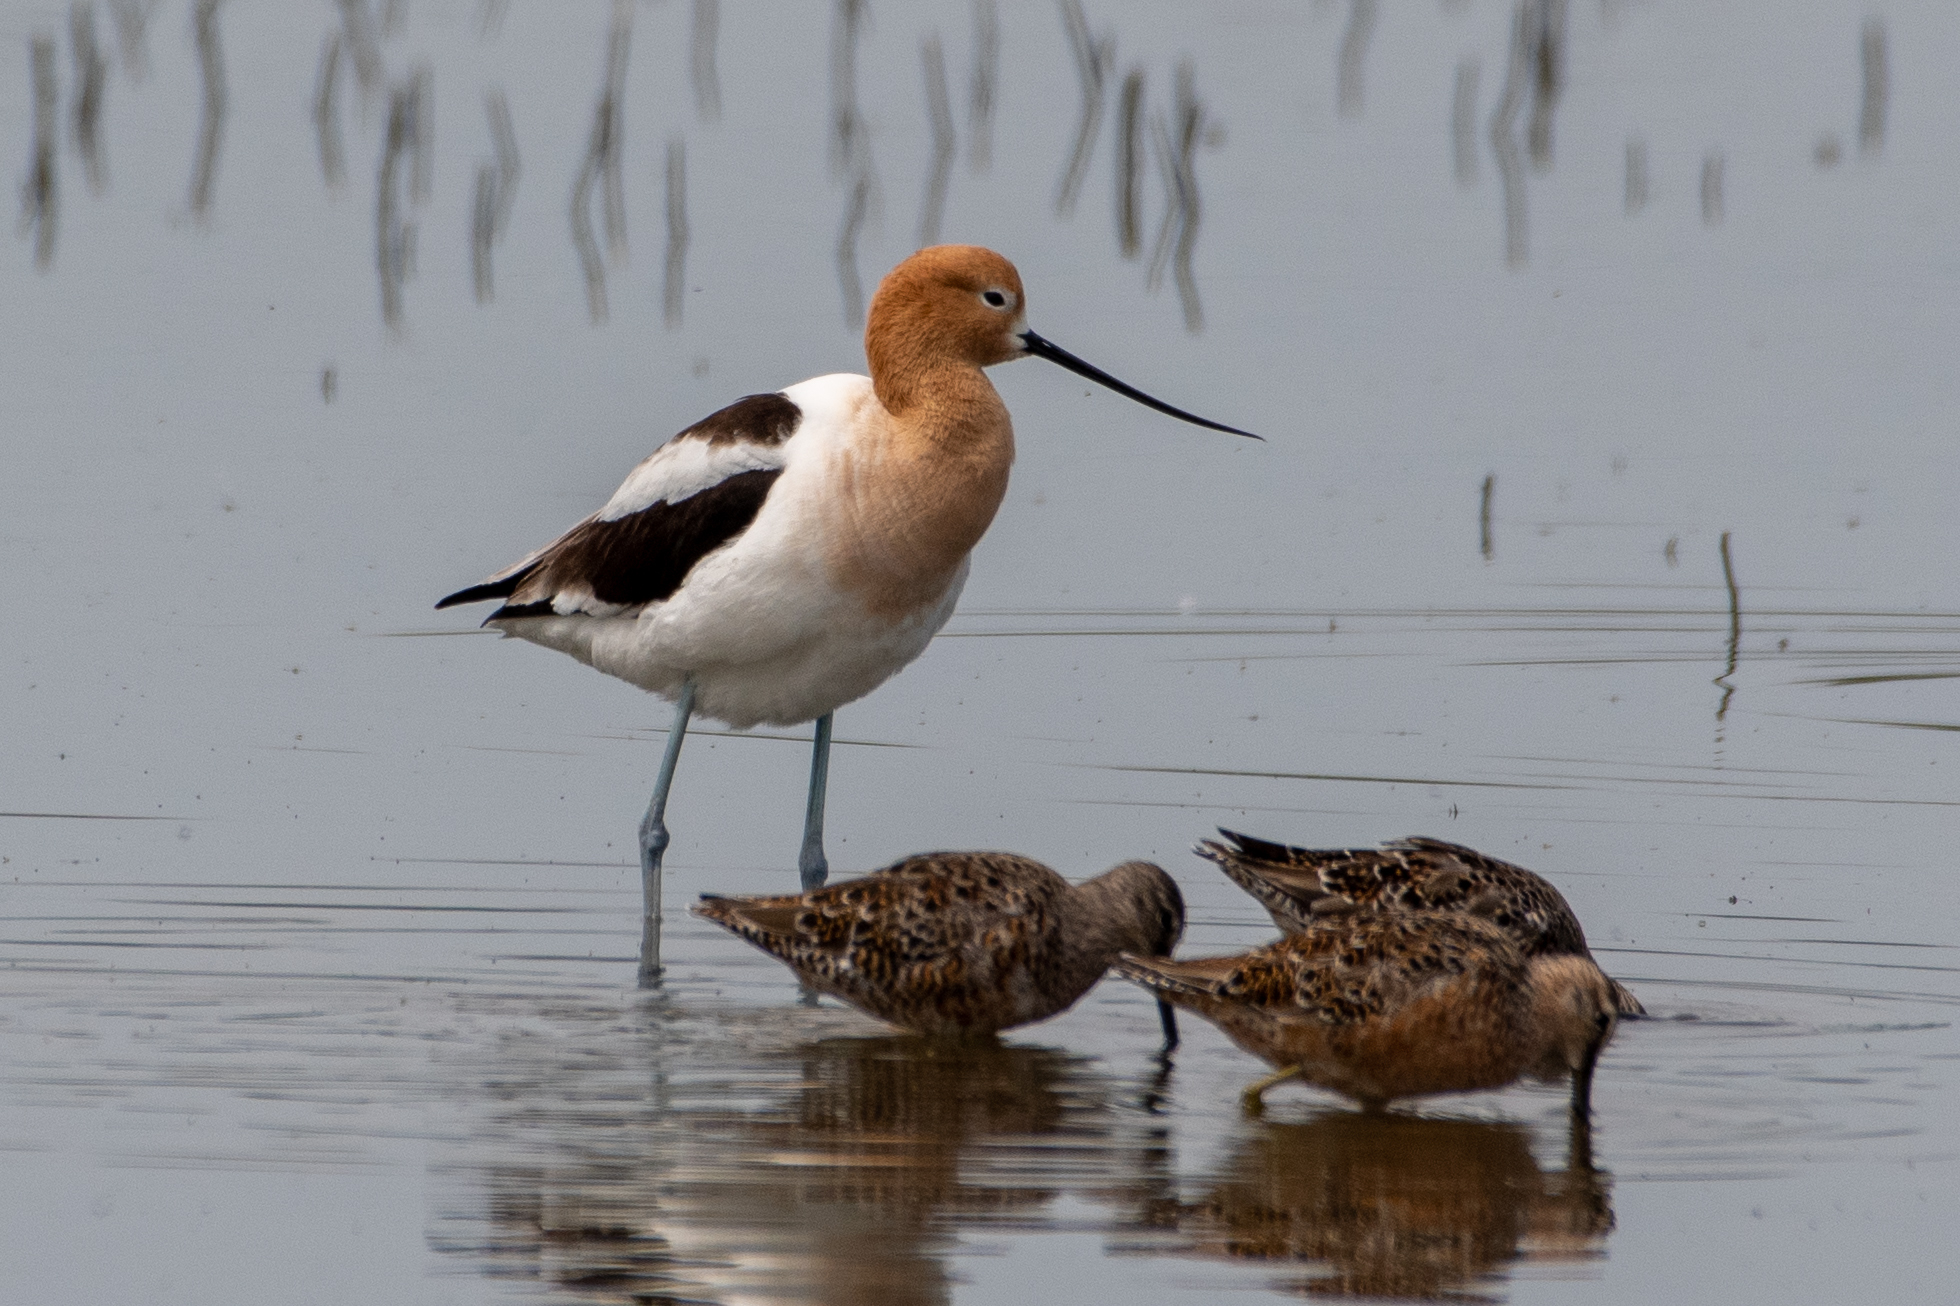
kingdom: Animalia
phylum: Chordata
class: Aves
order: Charadriiformes
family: Recurvirostridae
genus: Recurvirostra
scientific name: Recurvirostra americana
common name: American avocet
